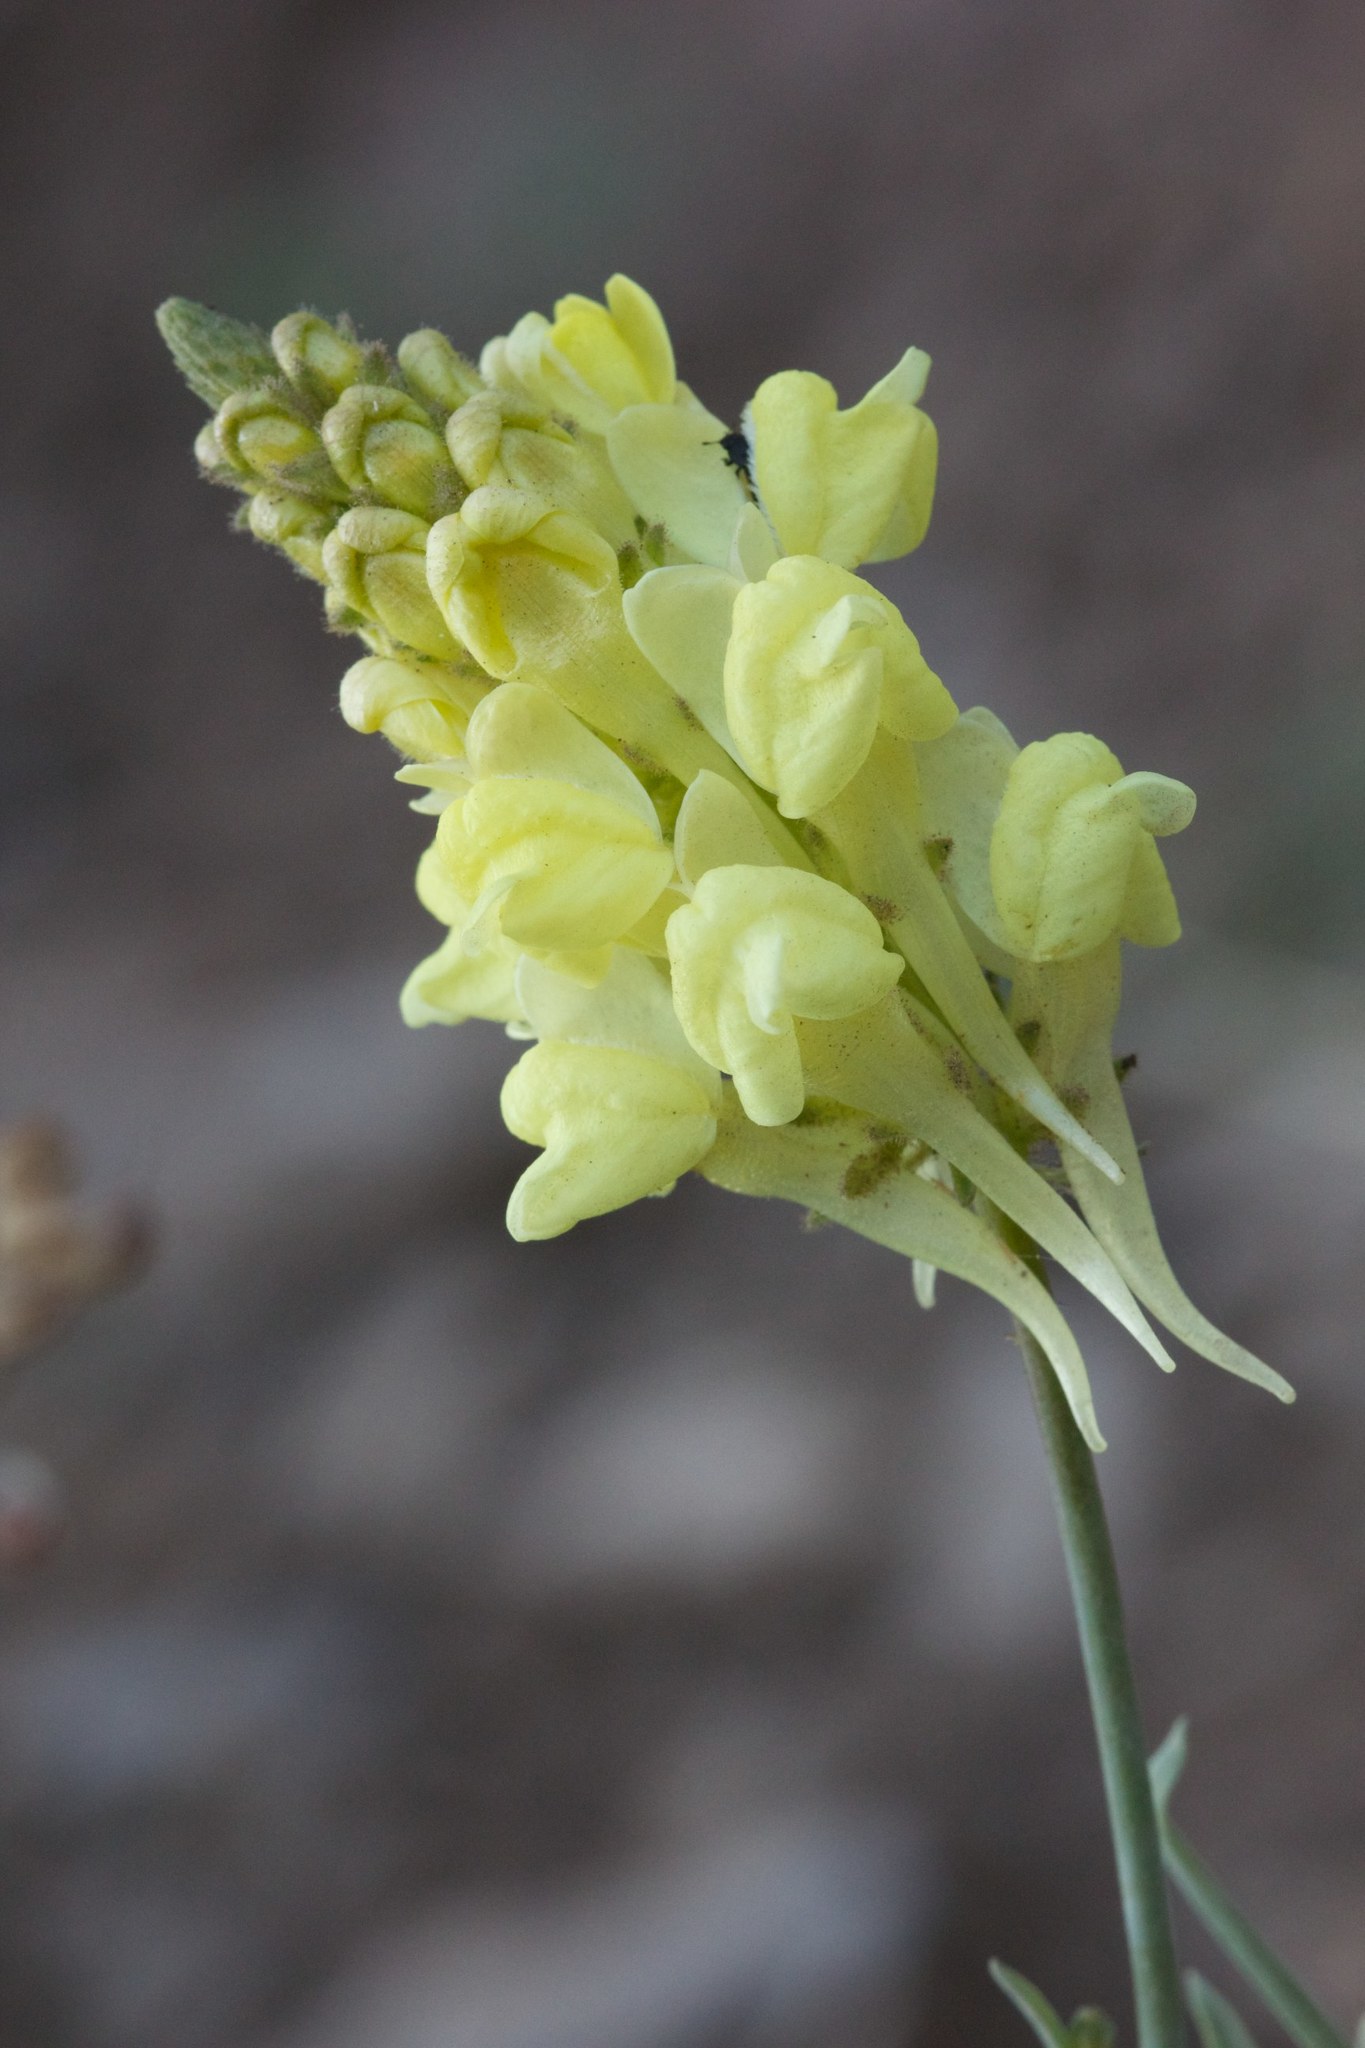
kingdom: Plantae
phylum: Tracheophyta
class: Magnoliopsida
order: Lamiales
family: Plantaginaceae
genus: Linaria
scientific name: Linaria peloponnesiaca
